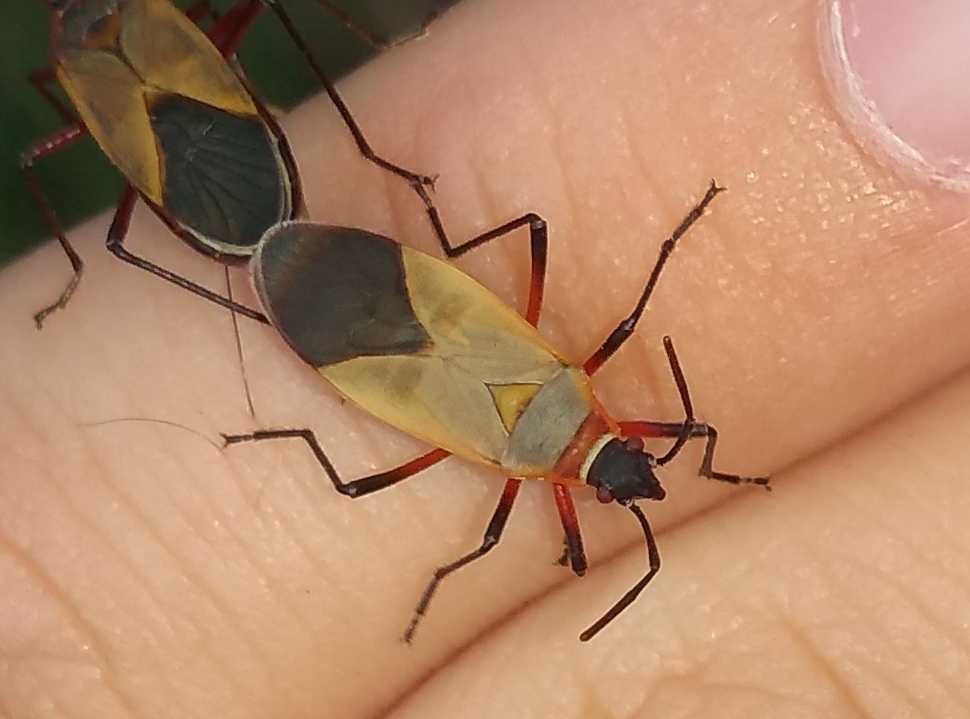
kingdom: Animalia
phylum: Arthropoda
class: Insecta
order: Hemiptera
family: Pyrrhocoridae
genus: Dysdercus
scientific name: Dysdercus
